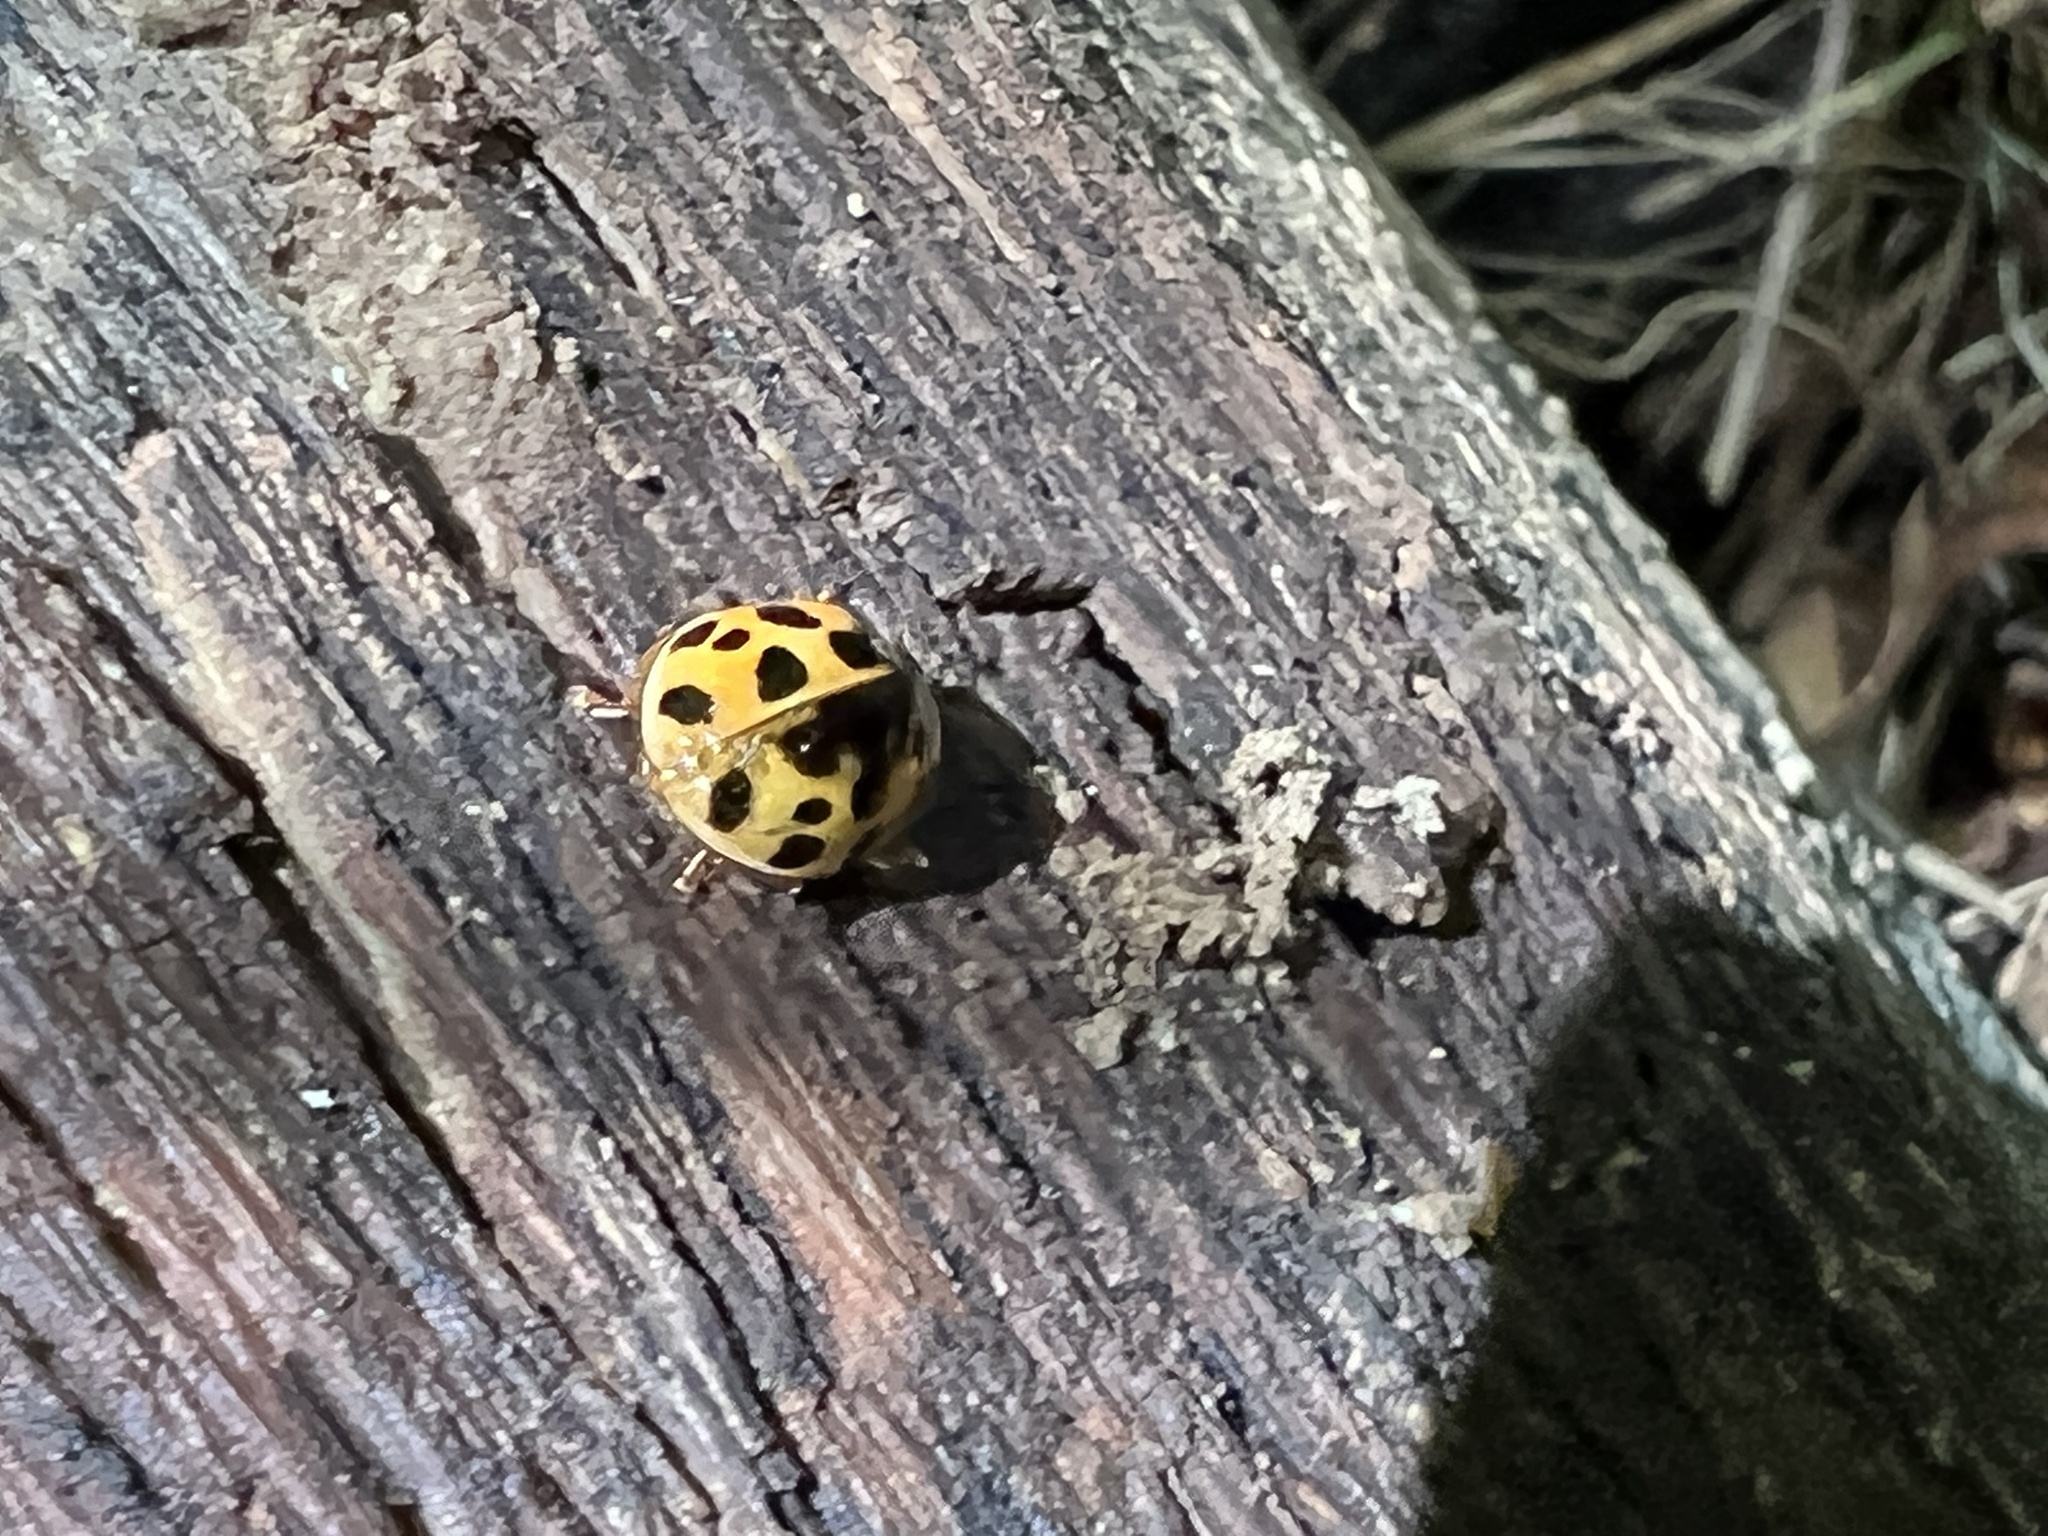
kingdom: Animalia
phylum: Arthropoda
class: Insecta
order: Coleoptera
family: Coccinellidae
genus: Harmonia
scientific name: Harmonia axyridis
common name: Harlequin ladybird
